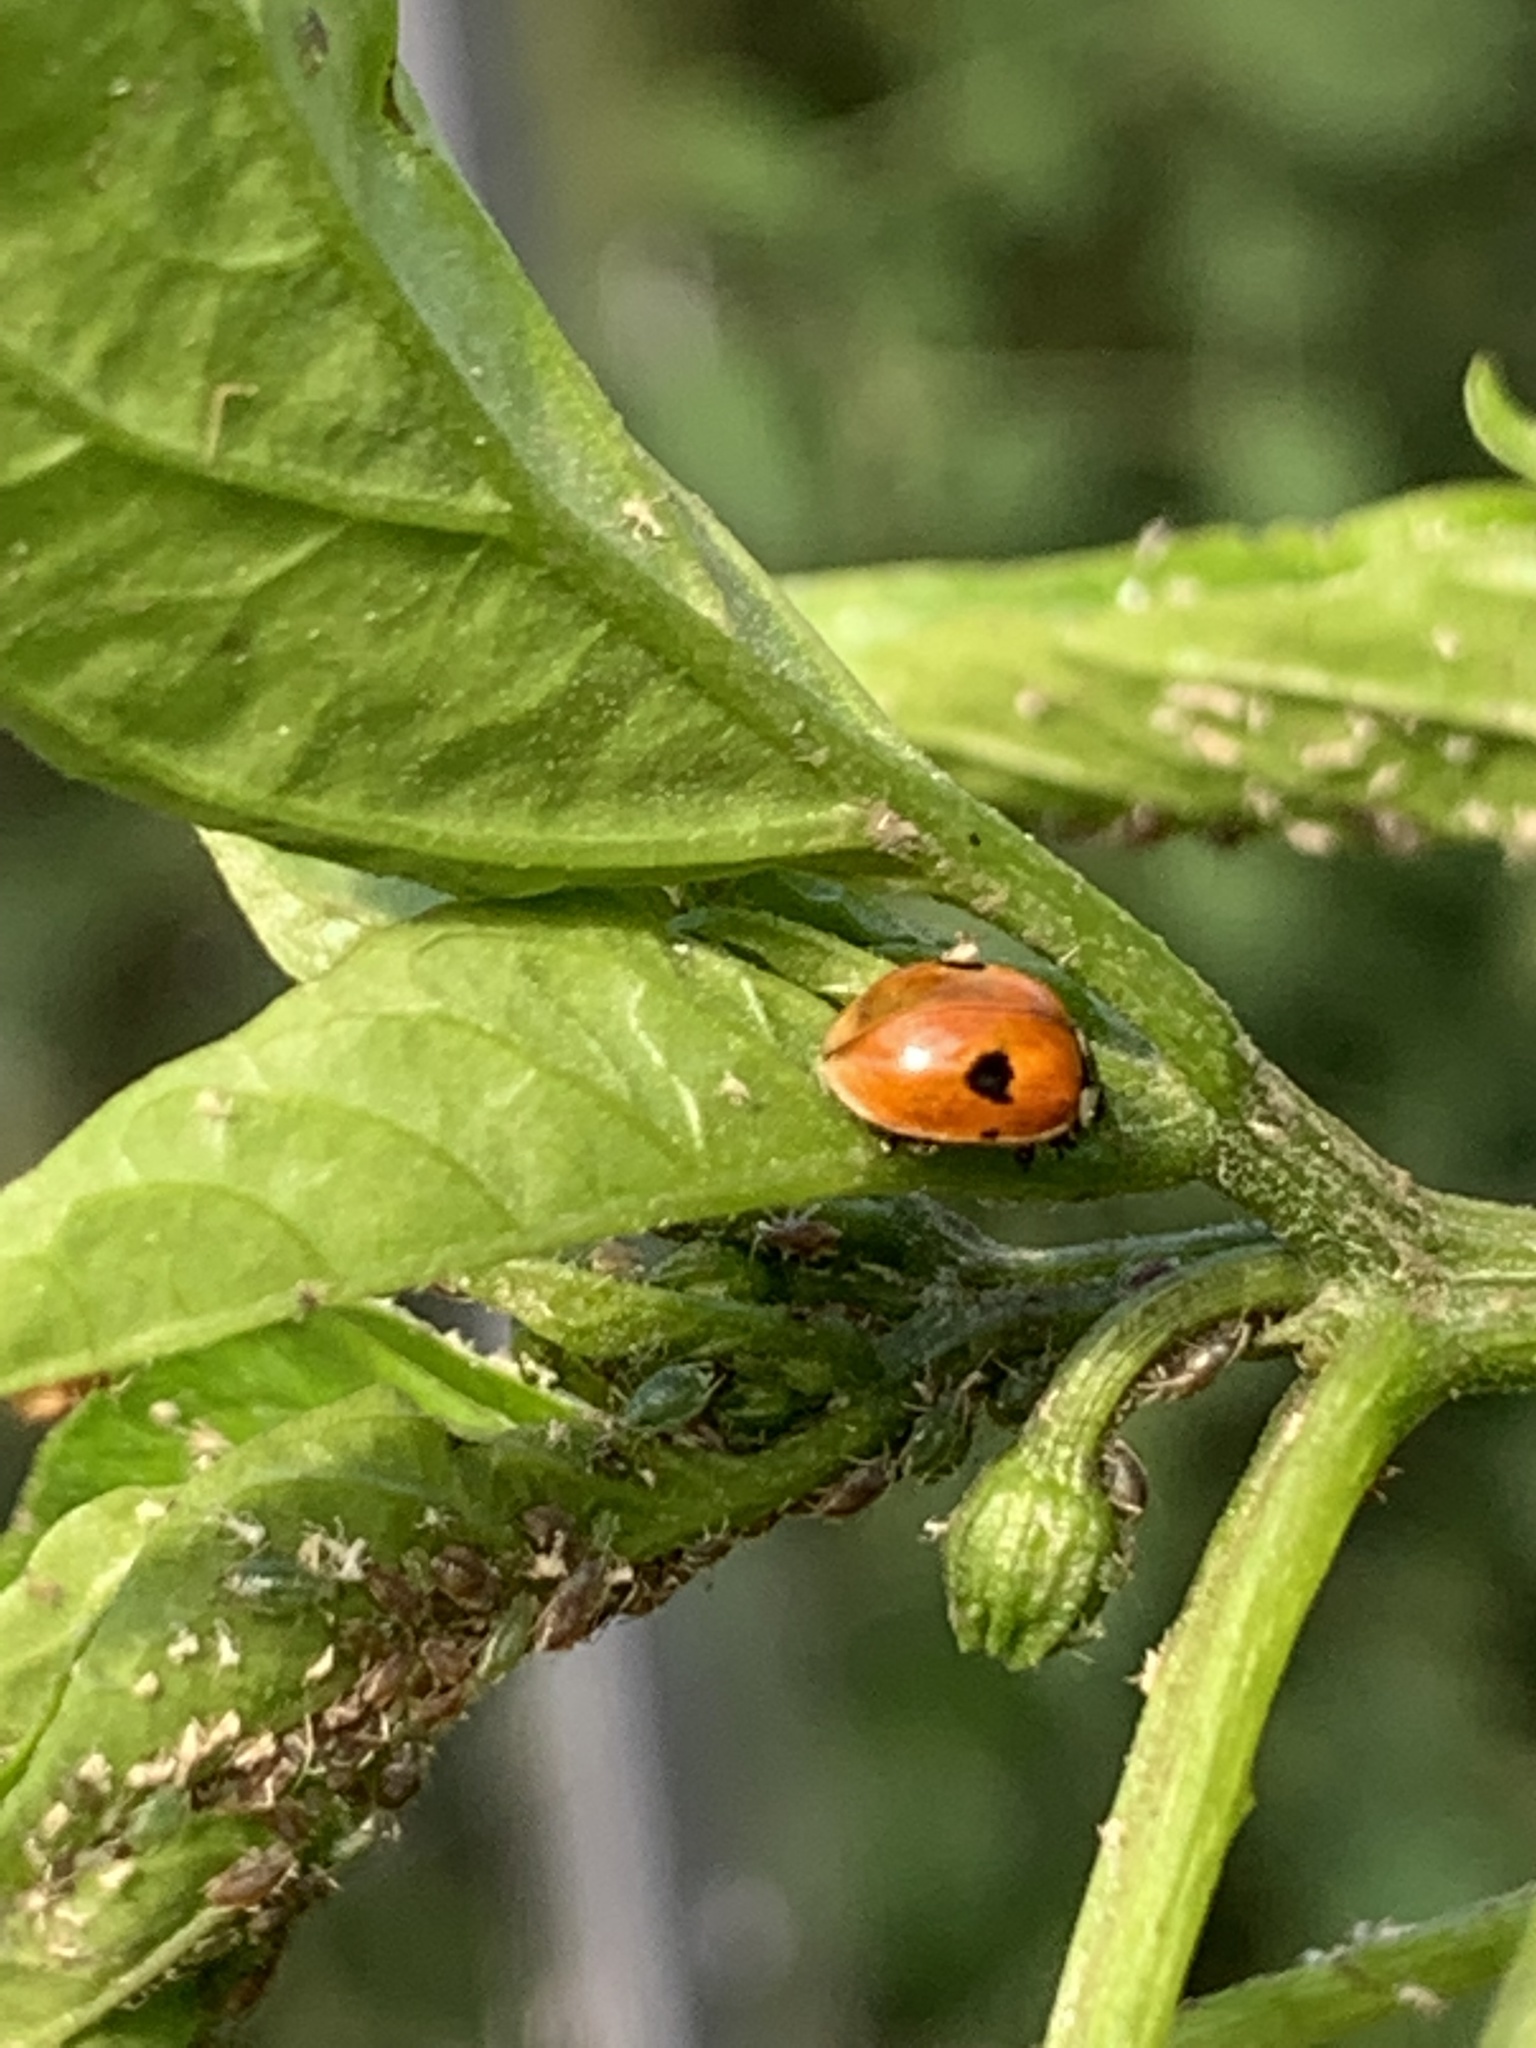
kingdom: Animalia
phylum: Arthropoda
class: Insecta
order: Coleoptera
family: Coccinellidae
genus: Adalia
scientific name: Adalia bipunctata
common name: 2-spot ladybird
